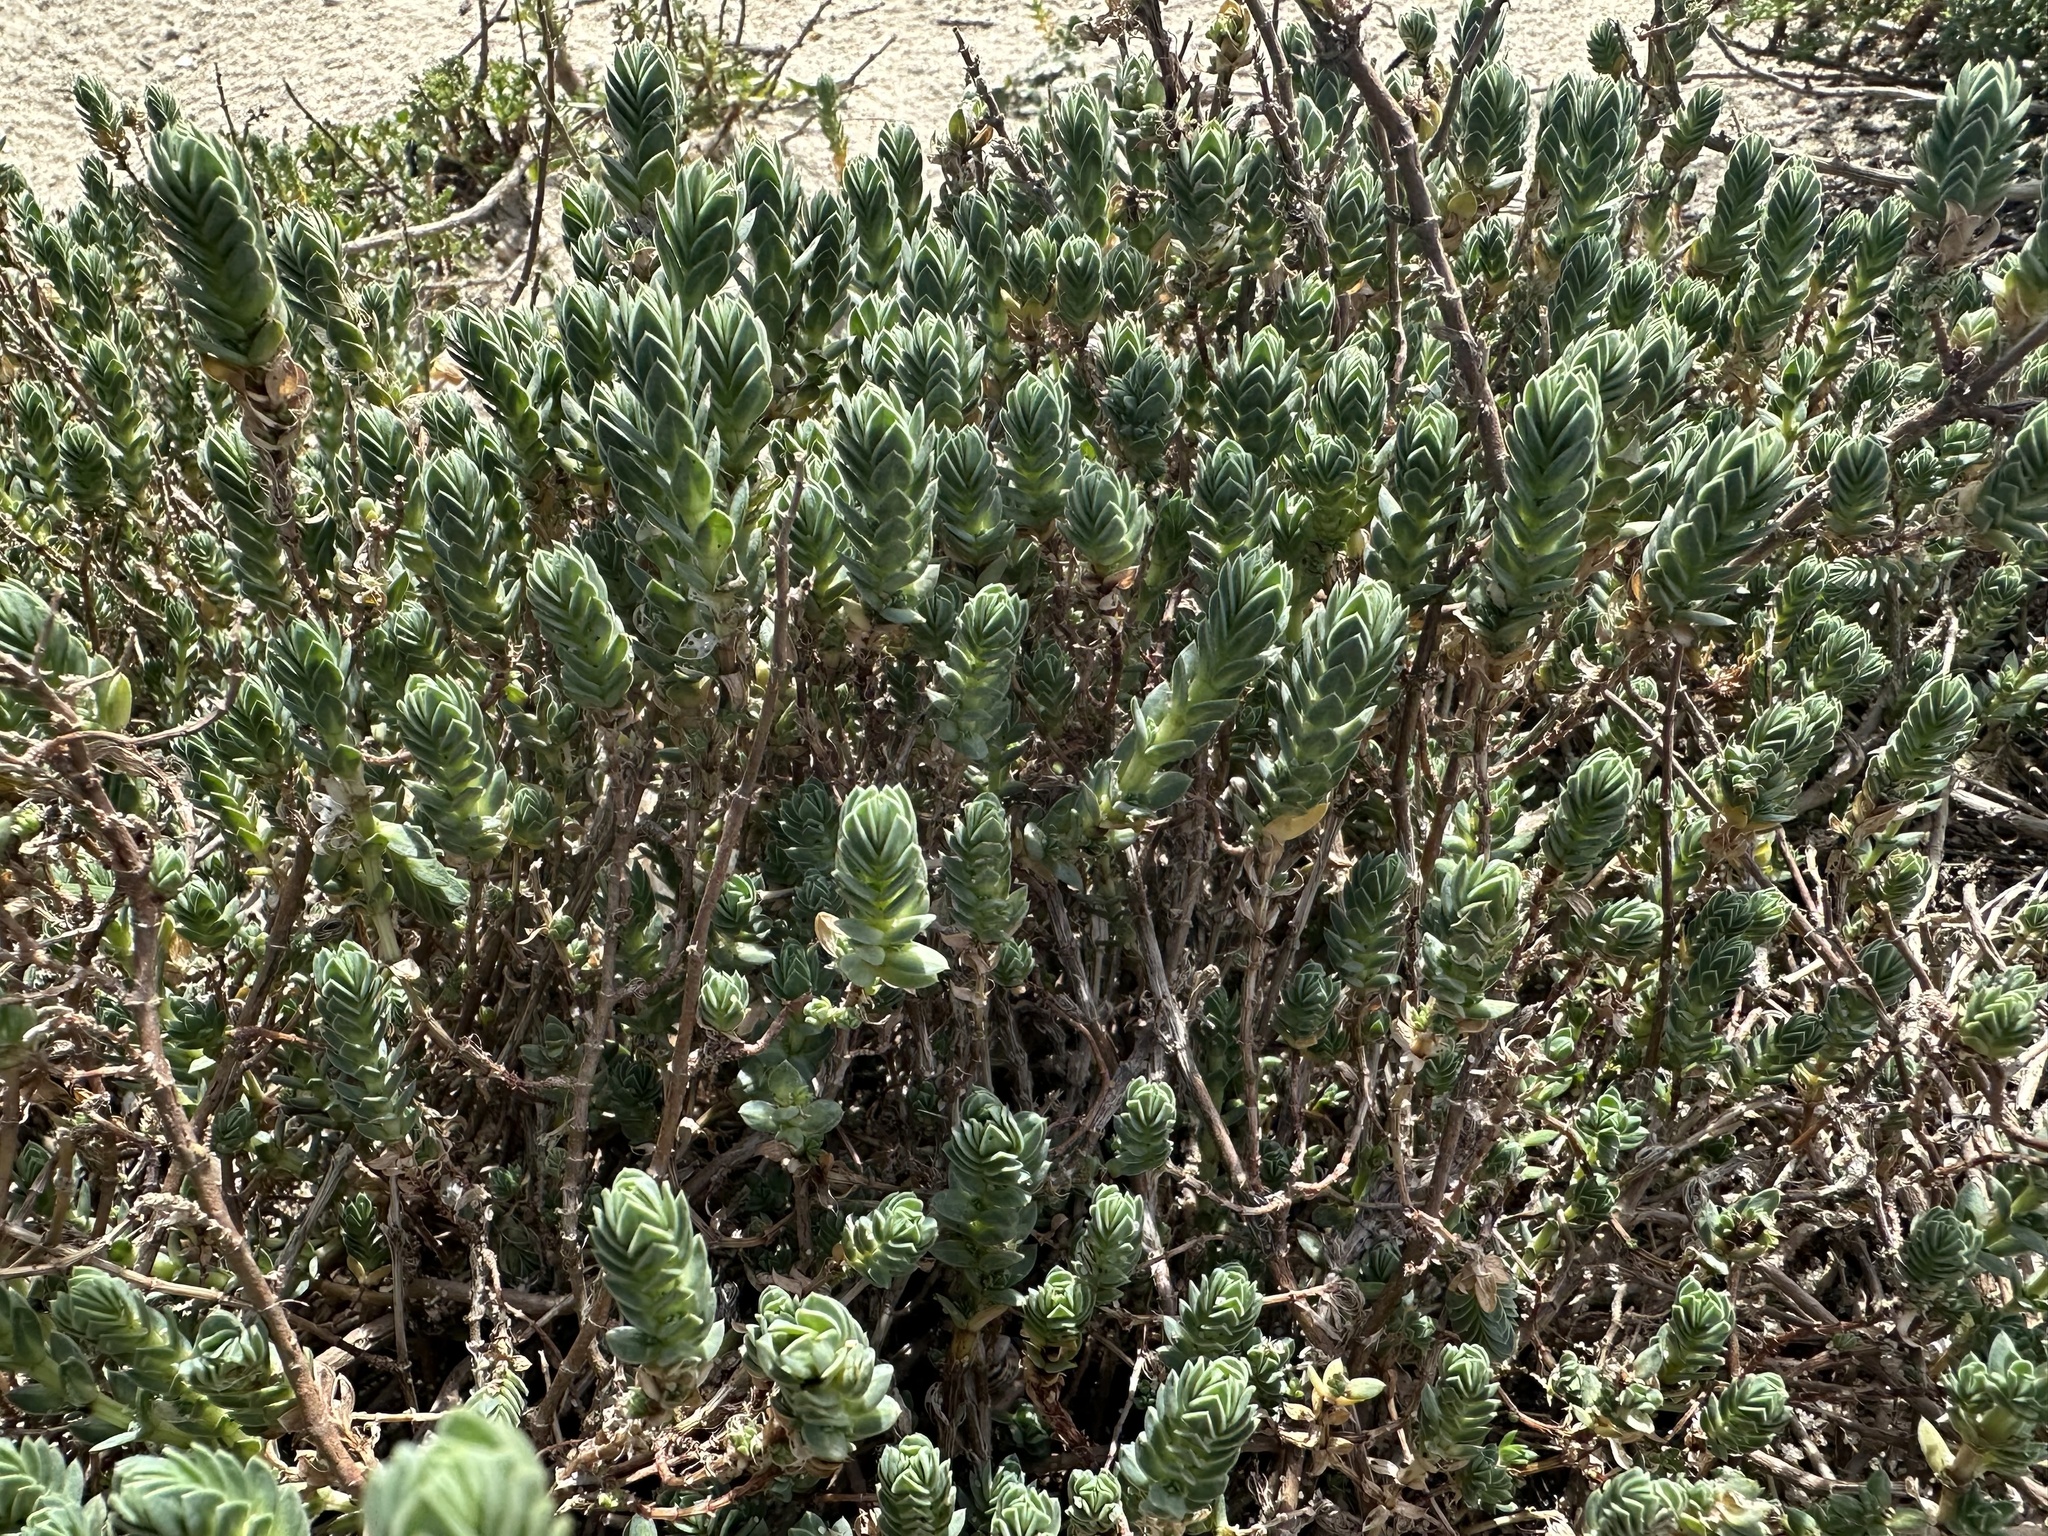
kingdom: Plantae
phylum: Tracheophyta
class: Magnoliopsida
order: Gentianales
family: Rubiaceae
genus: Crucianella
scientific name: Crucianella maritima
